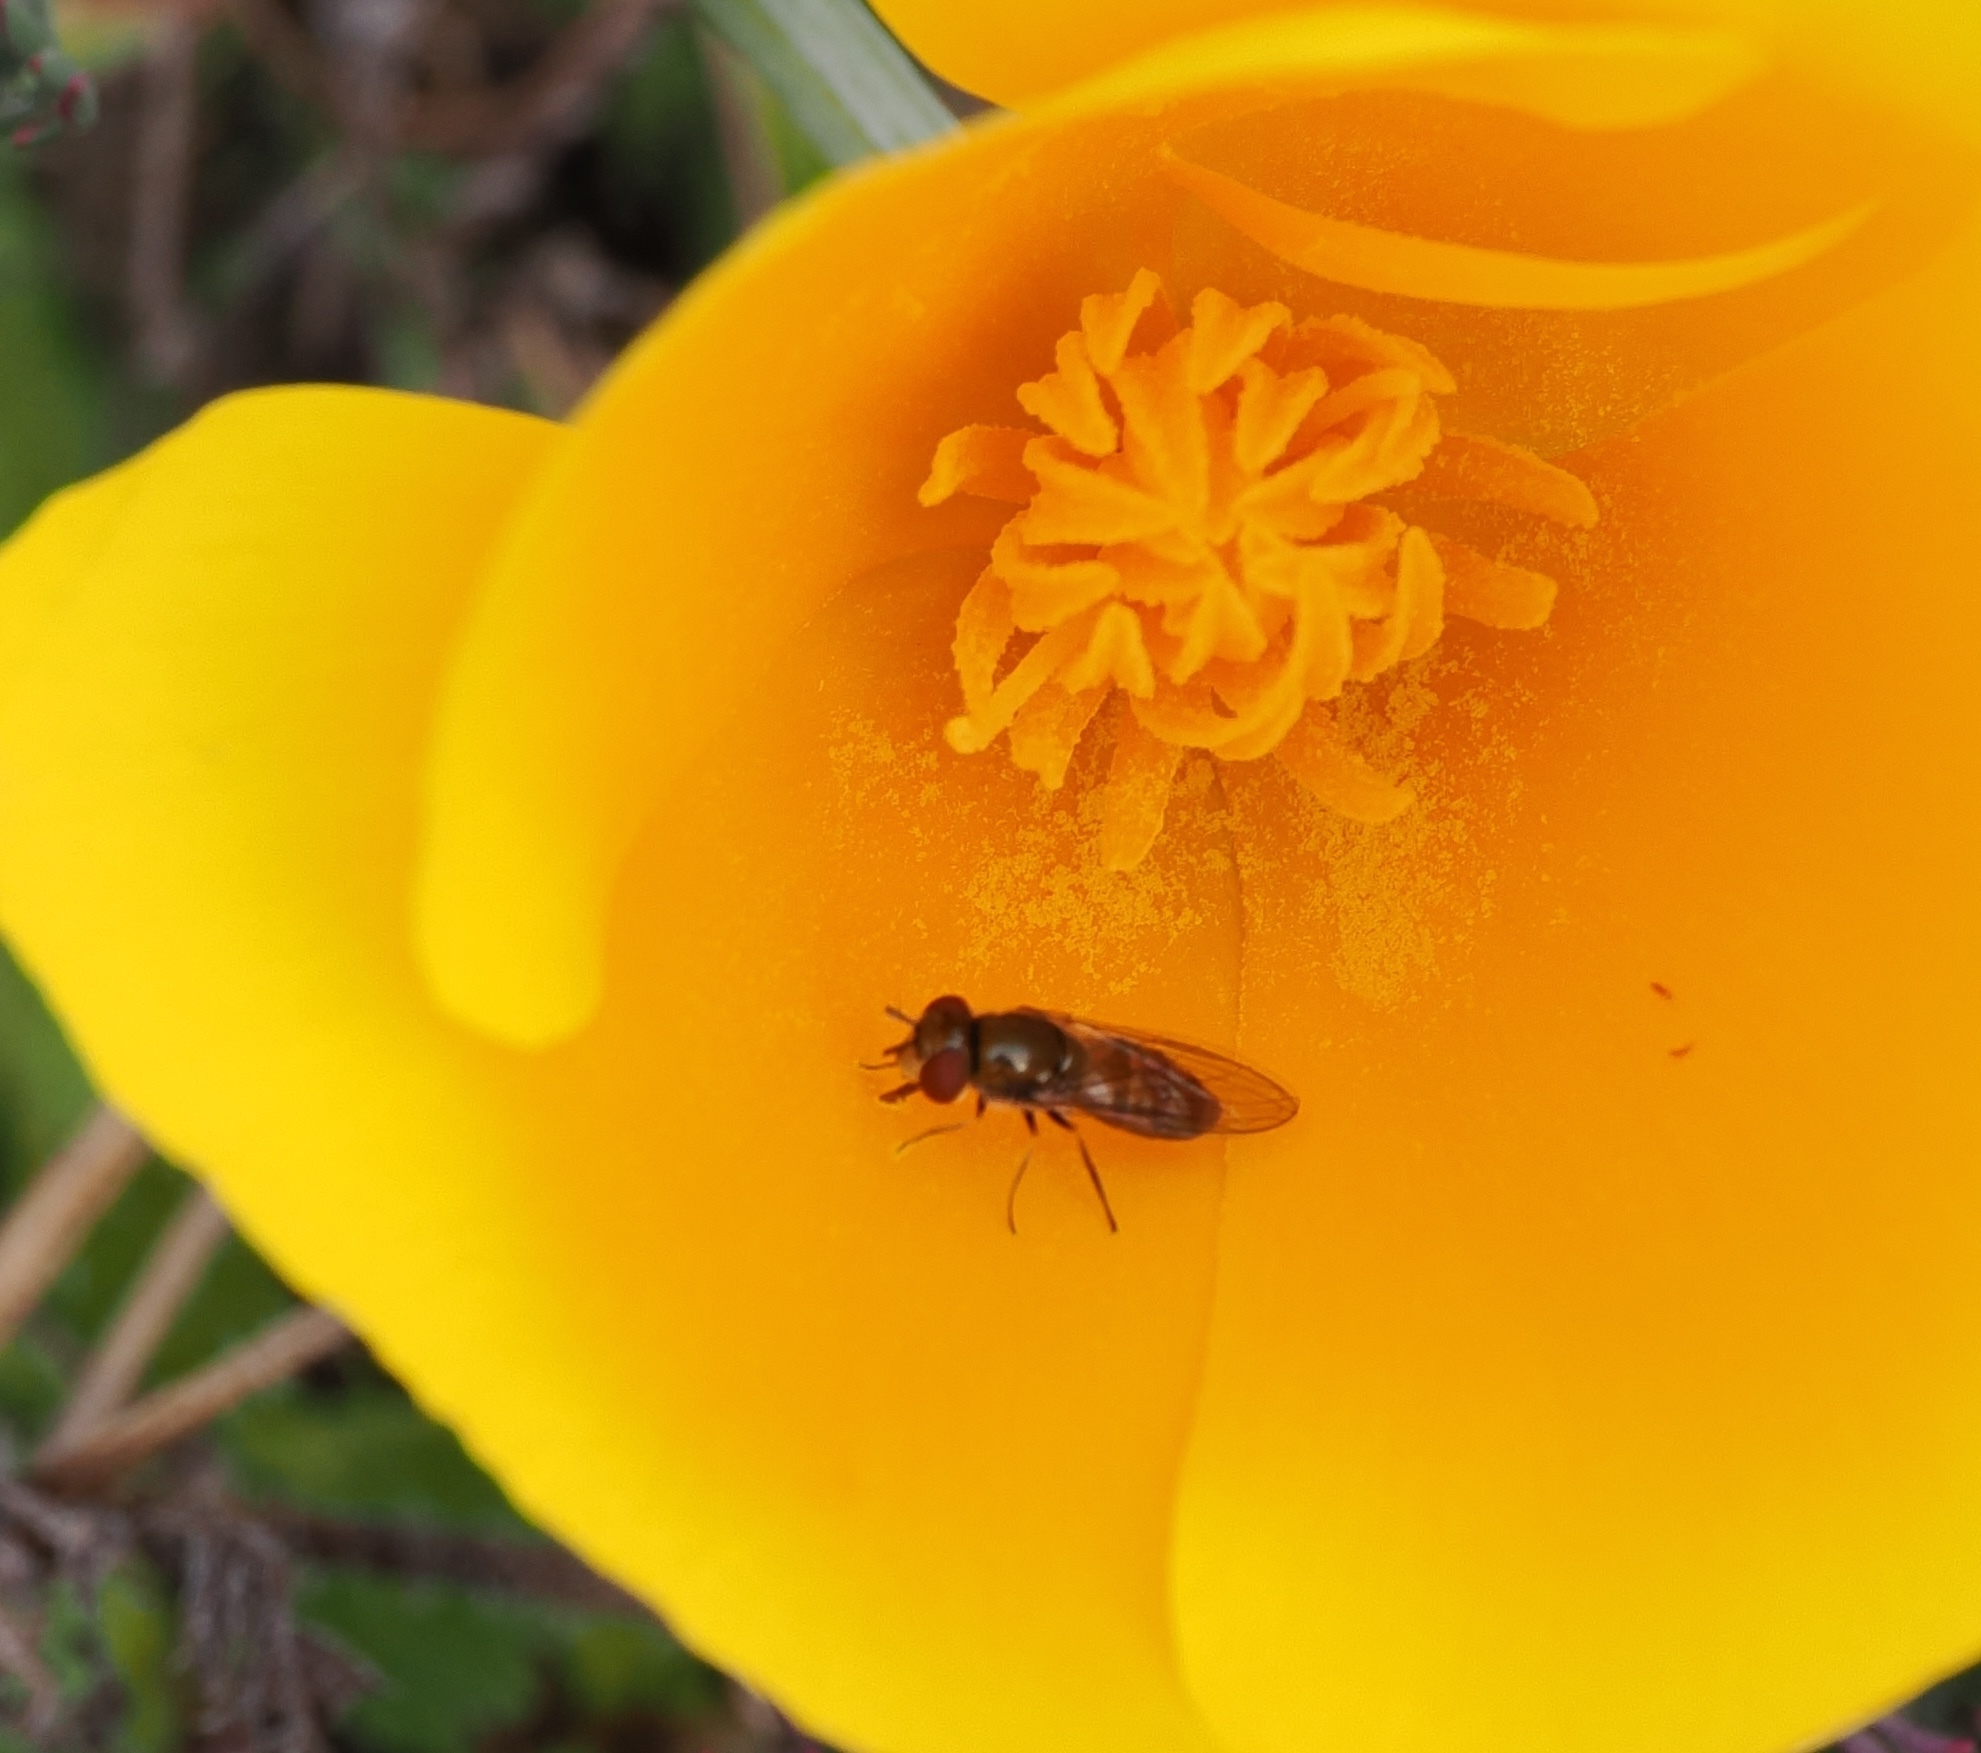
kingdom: Animalia
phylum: Arthropoda
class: Insecta
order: Diptera
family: Syrphidae
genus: Platycheirus
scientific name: Platycheirus stegnus
